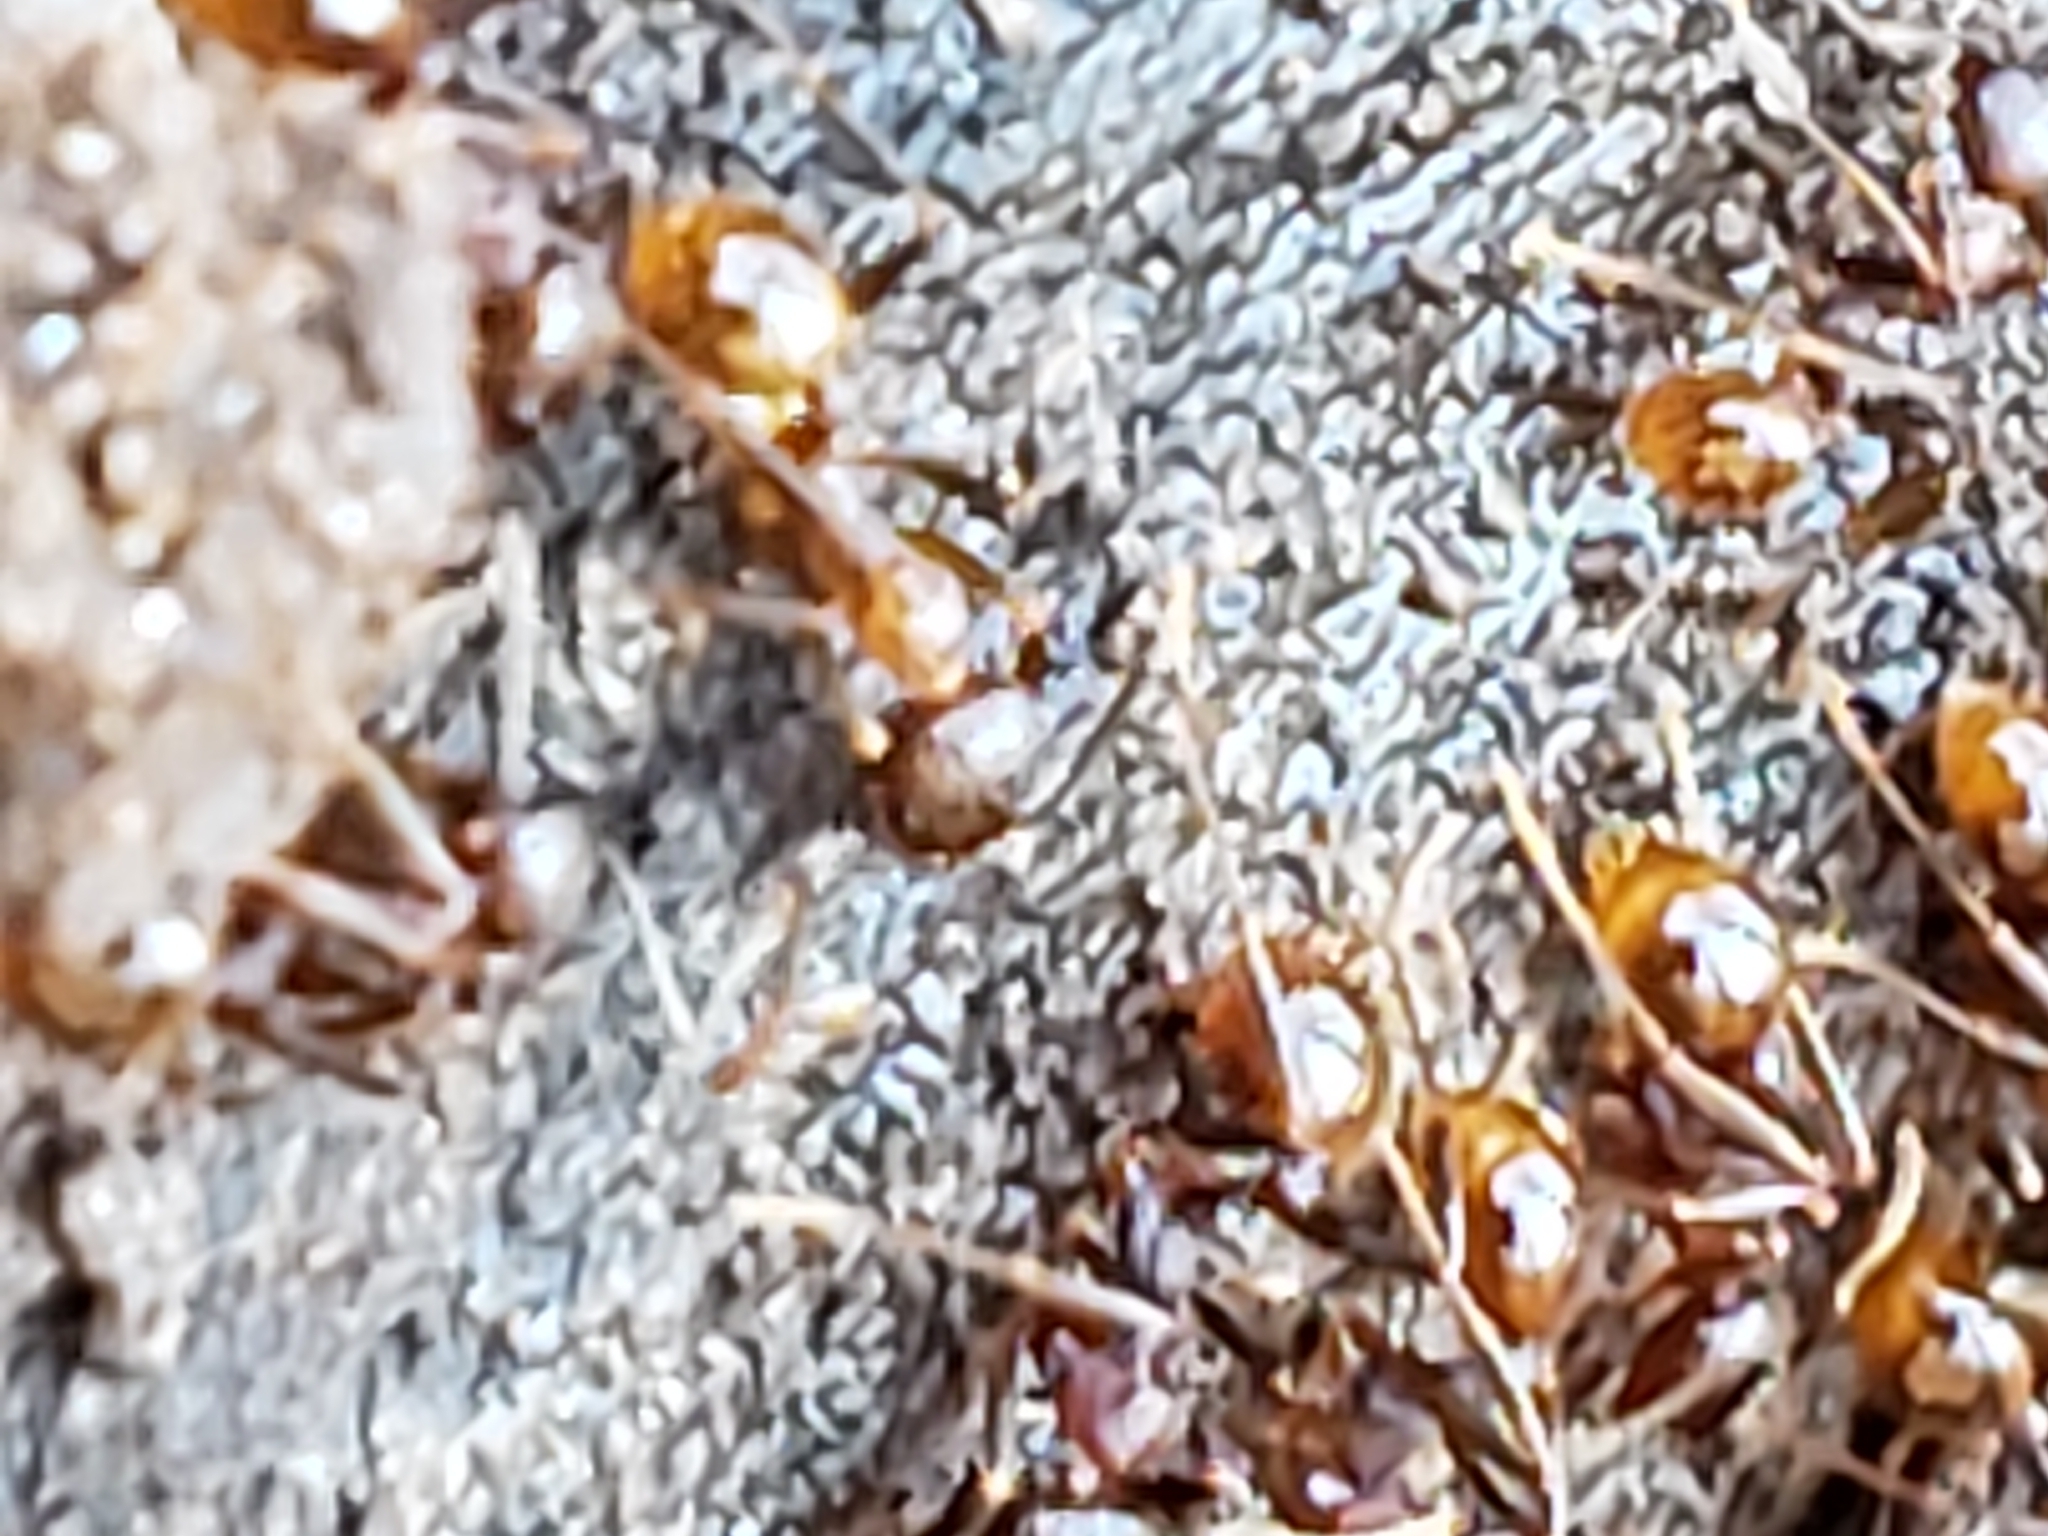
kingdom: Animalia
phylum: Arthropoda
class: Insecta
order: Hymenoptera
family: Formicidae
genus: Aphaenogaster
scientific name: Aphaenogaster fulva
